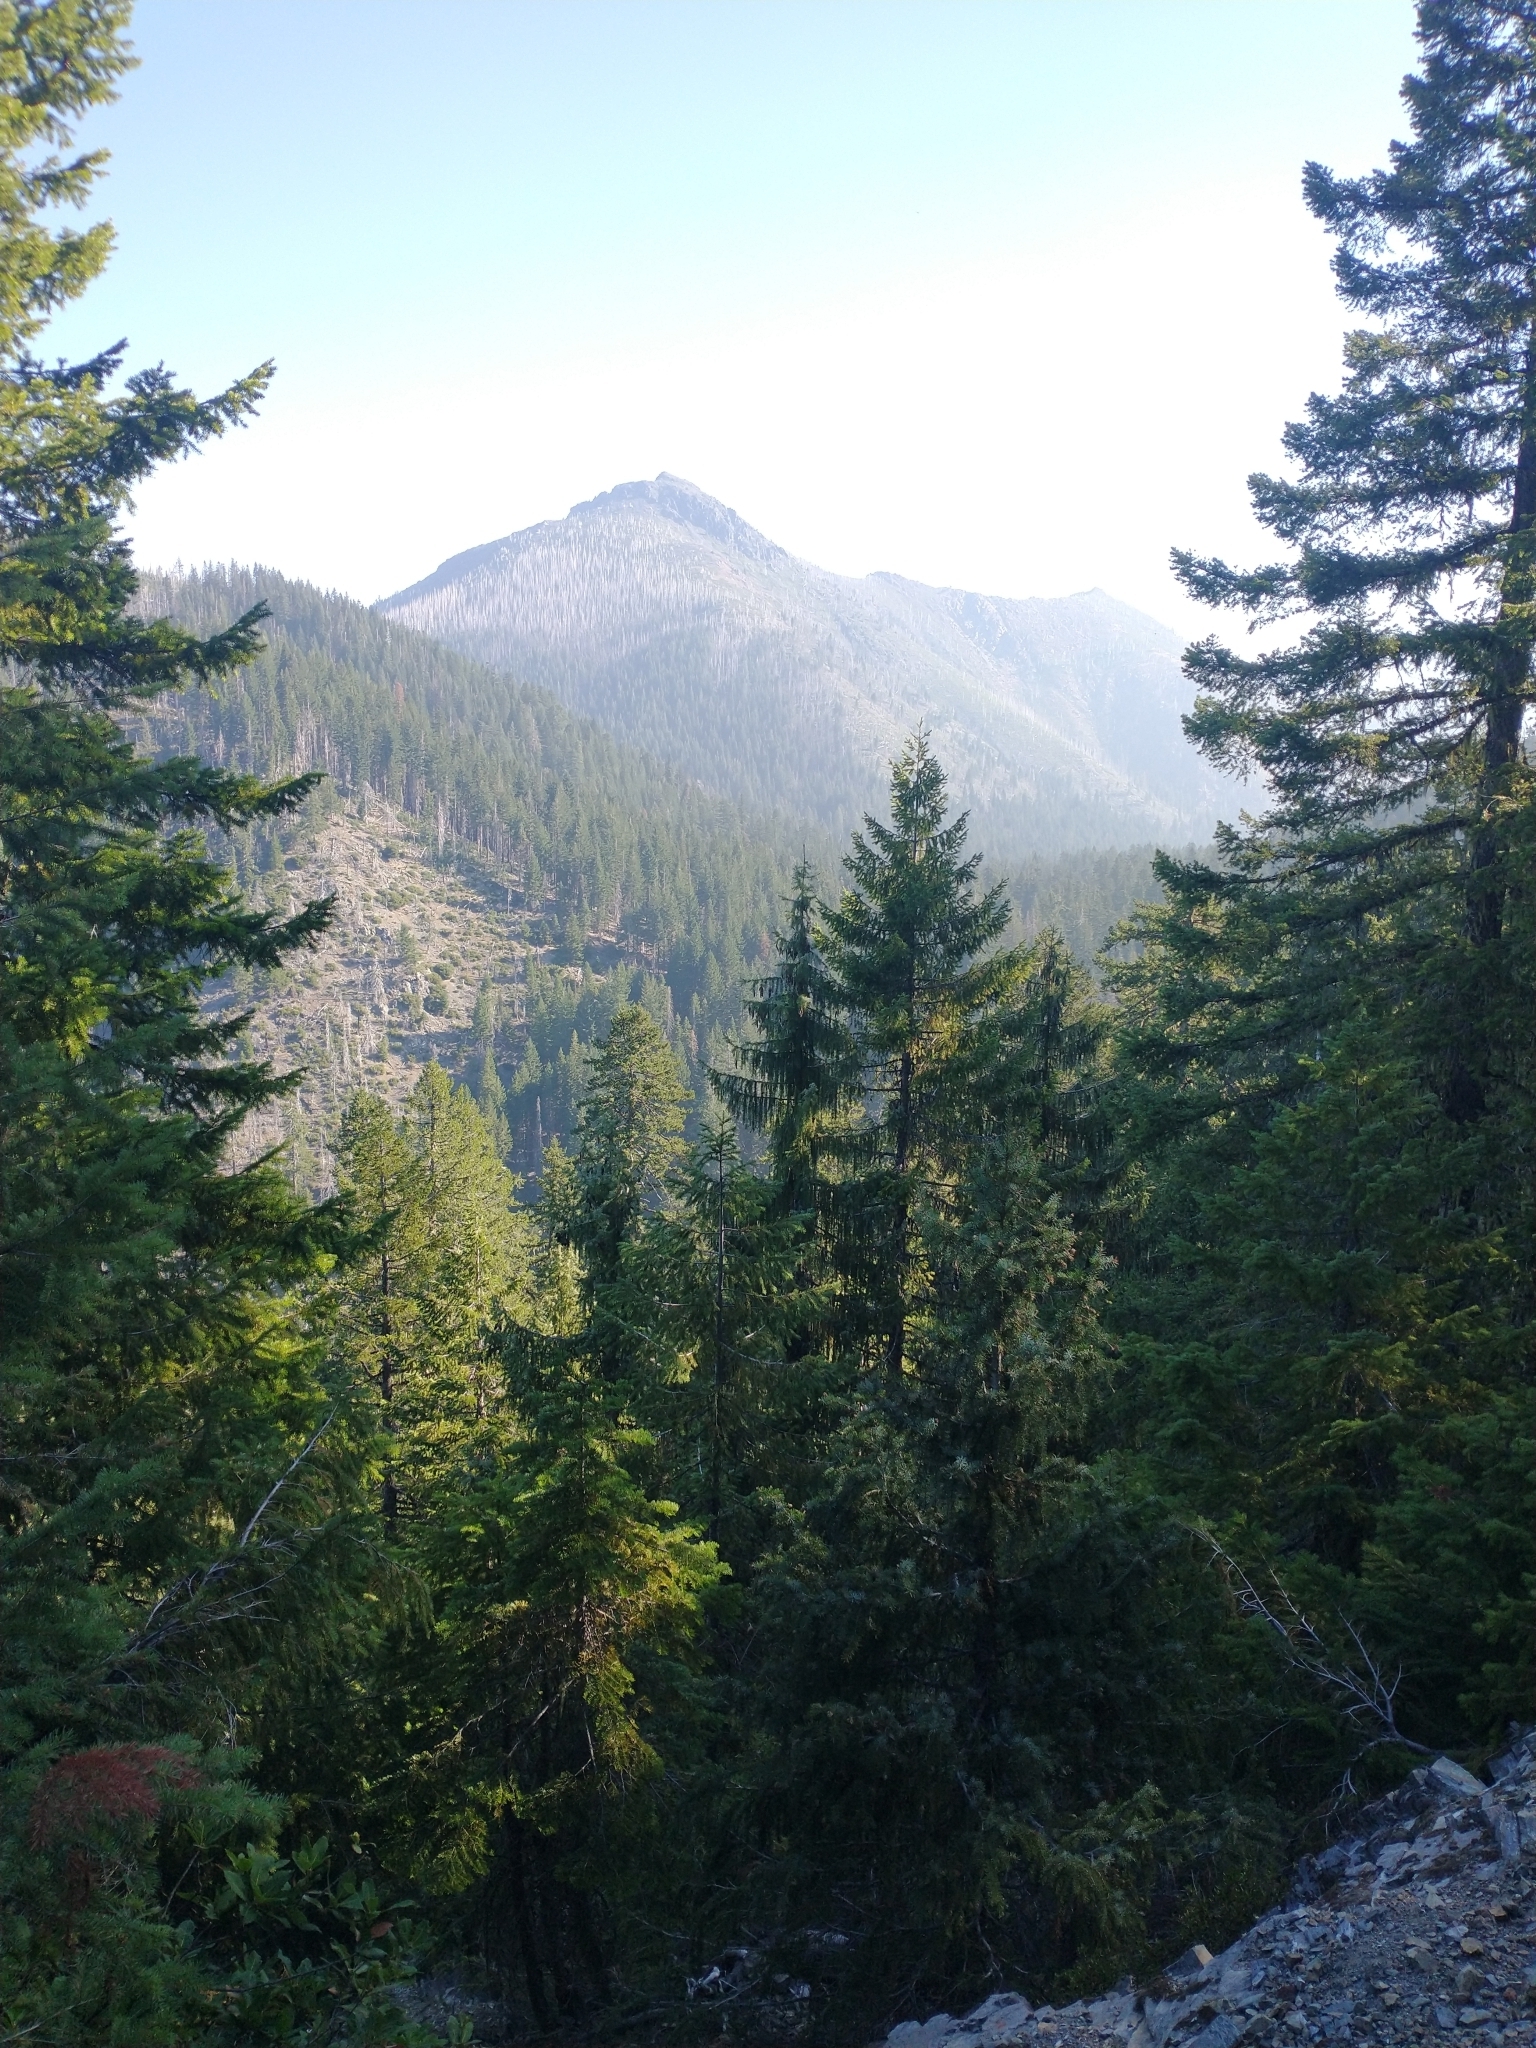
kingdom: Plantae
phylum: Tracheophyta
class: Pinopsida
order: Pinales
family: Pinaceae
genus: Pseudotsuga
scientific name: Pseudotsuga menziesii
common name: Douglas fir
